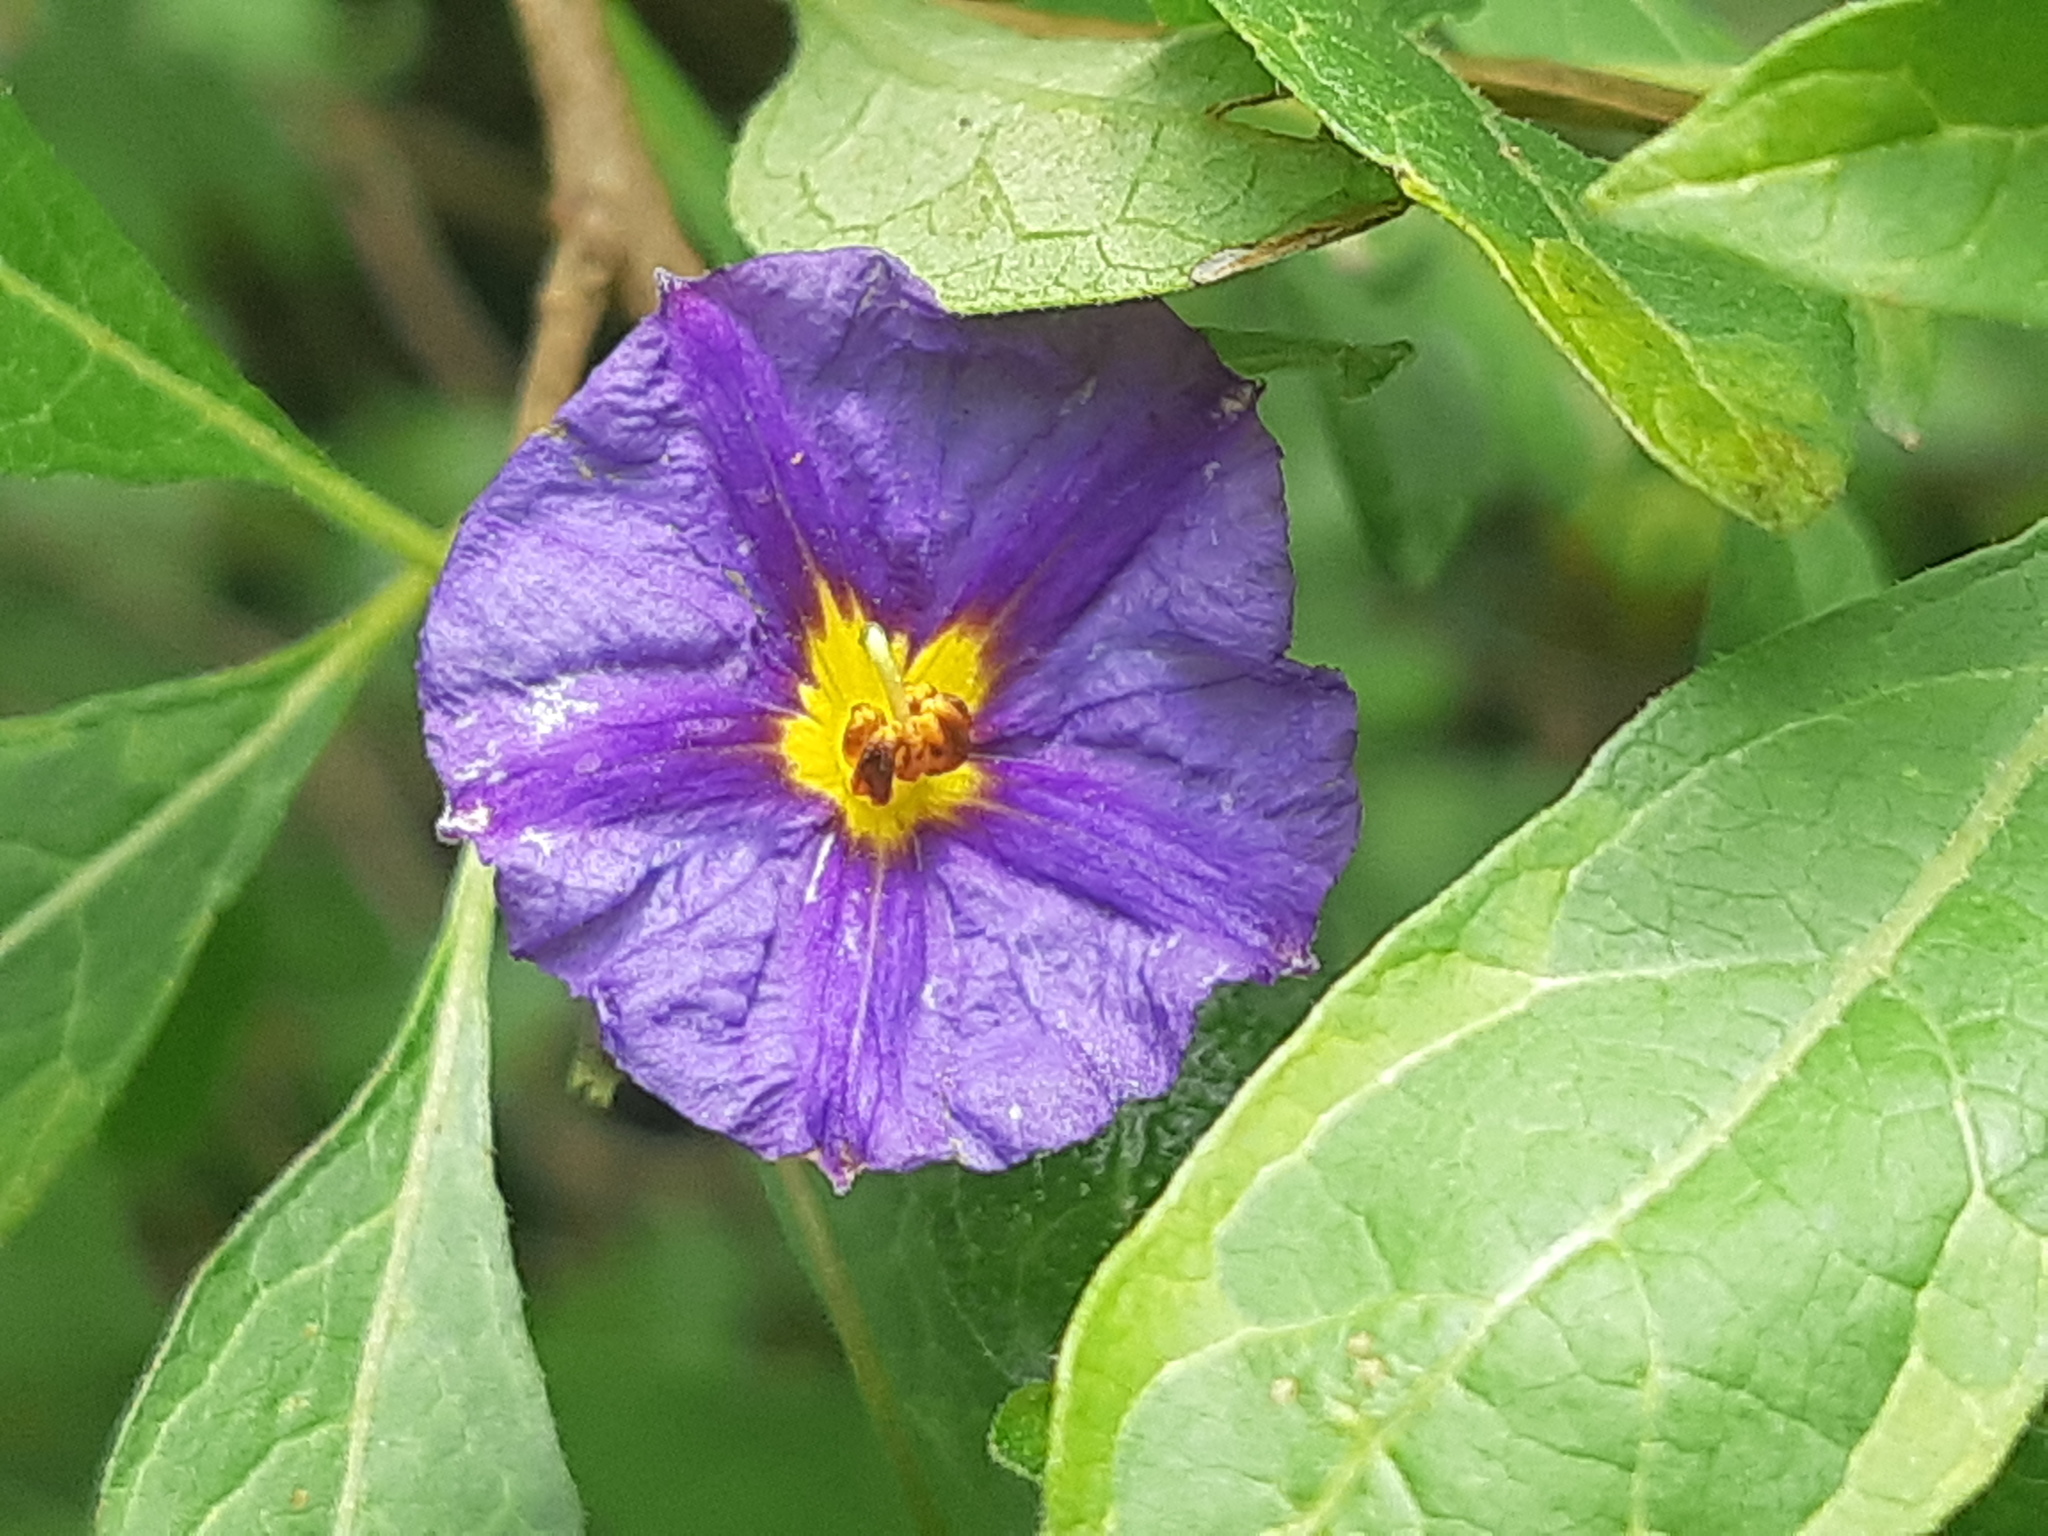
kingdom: Plantae
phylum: Tracheophyta
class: Magnoliopsida
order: Solanales
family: Solanaceae
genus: Lycianthes
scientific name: Lycianthes lycioides
